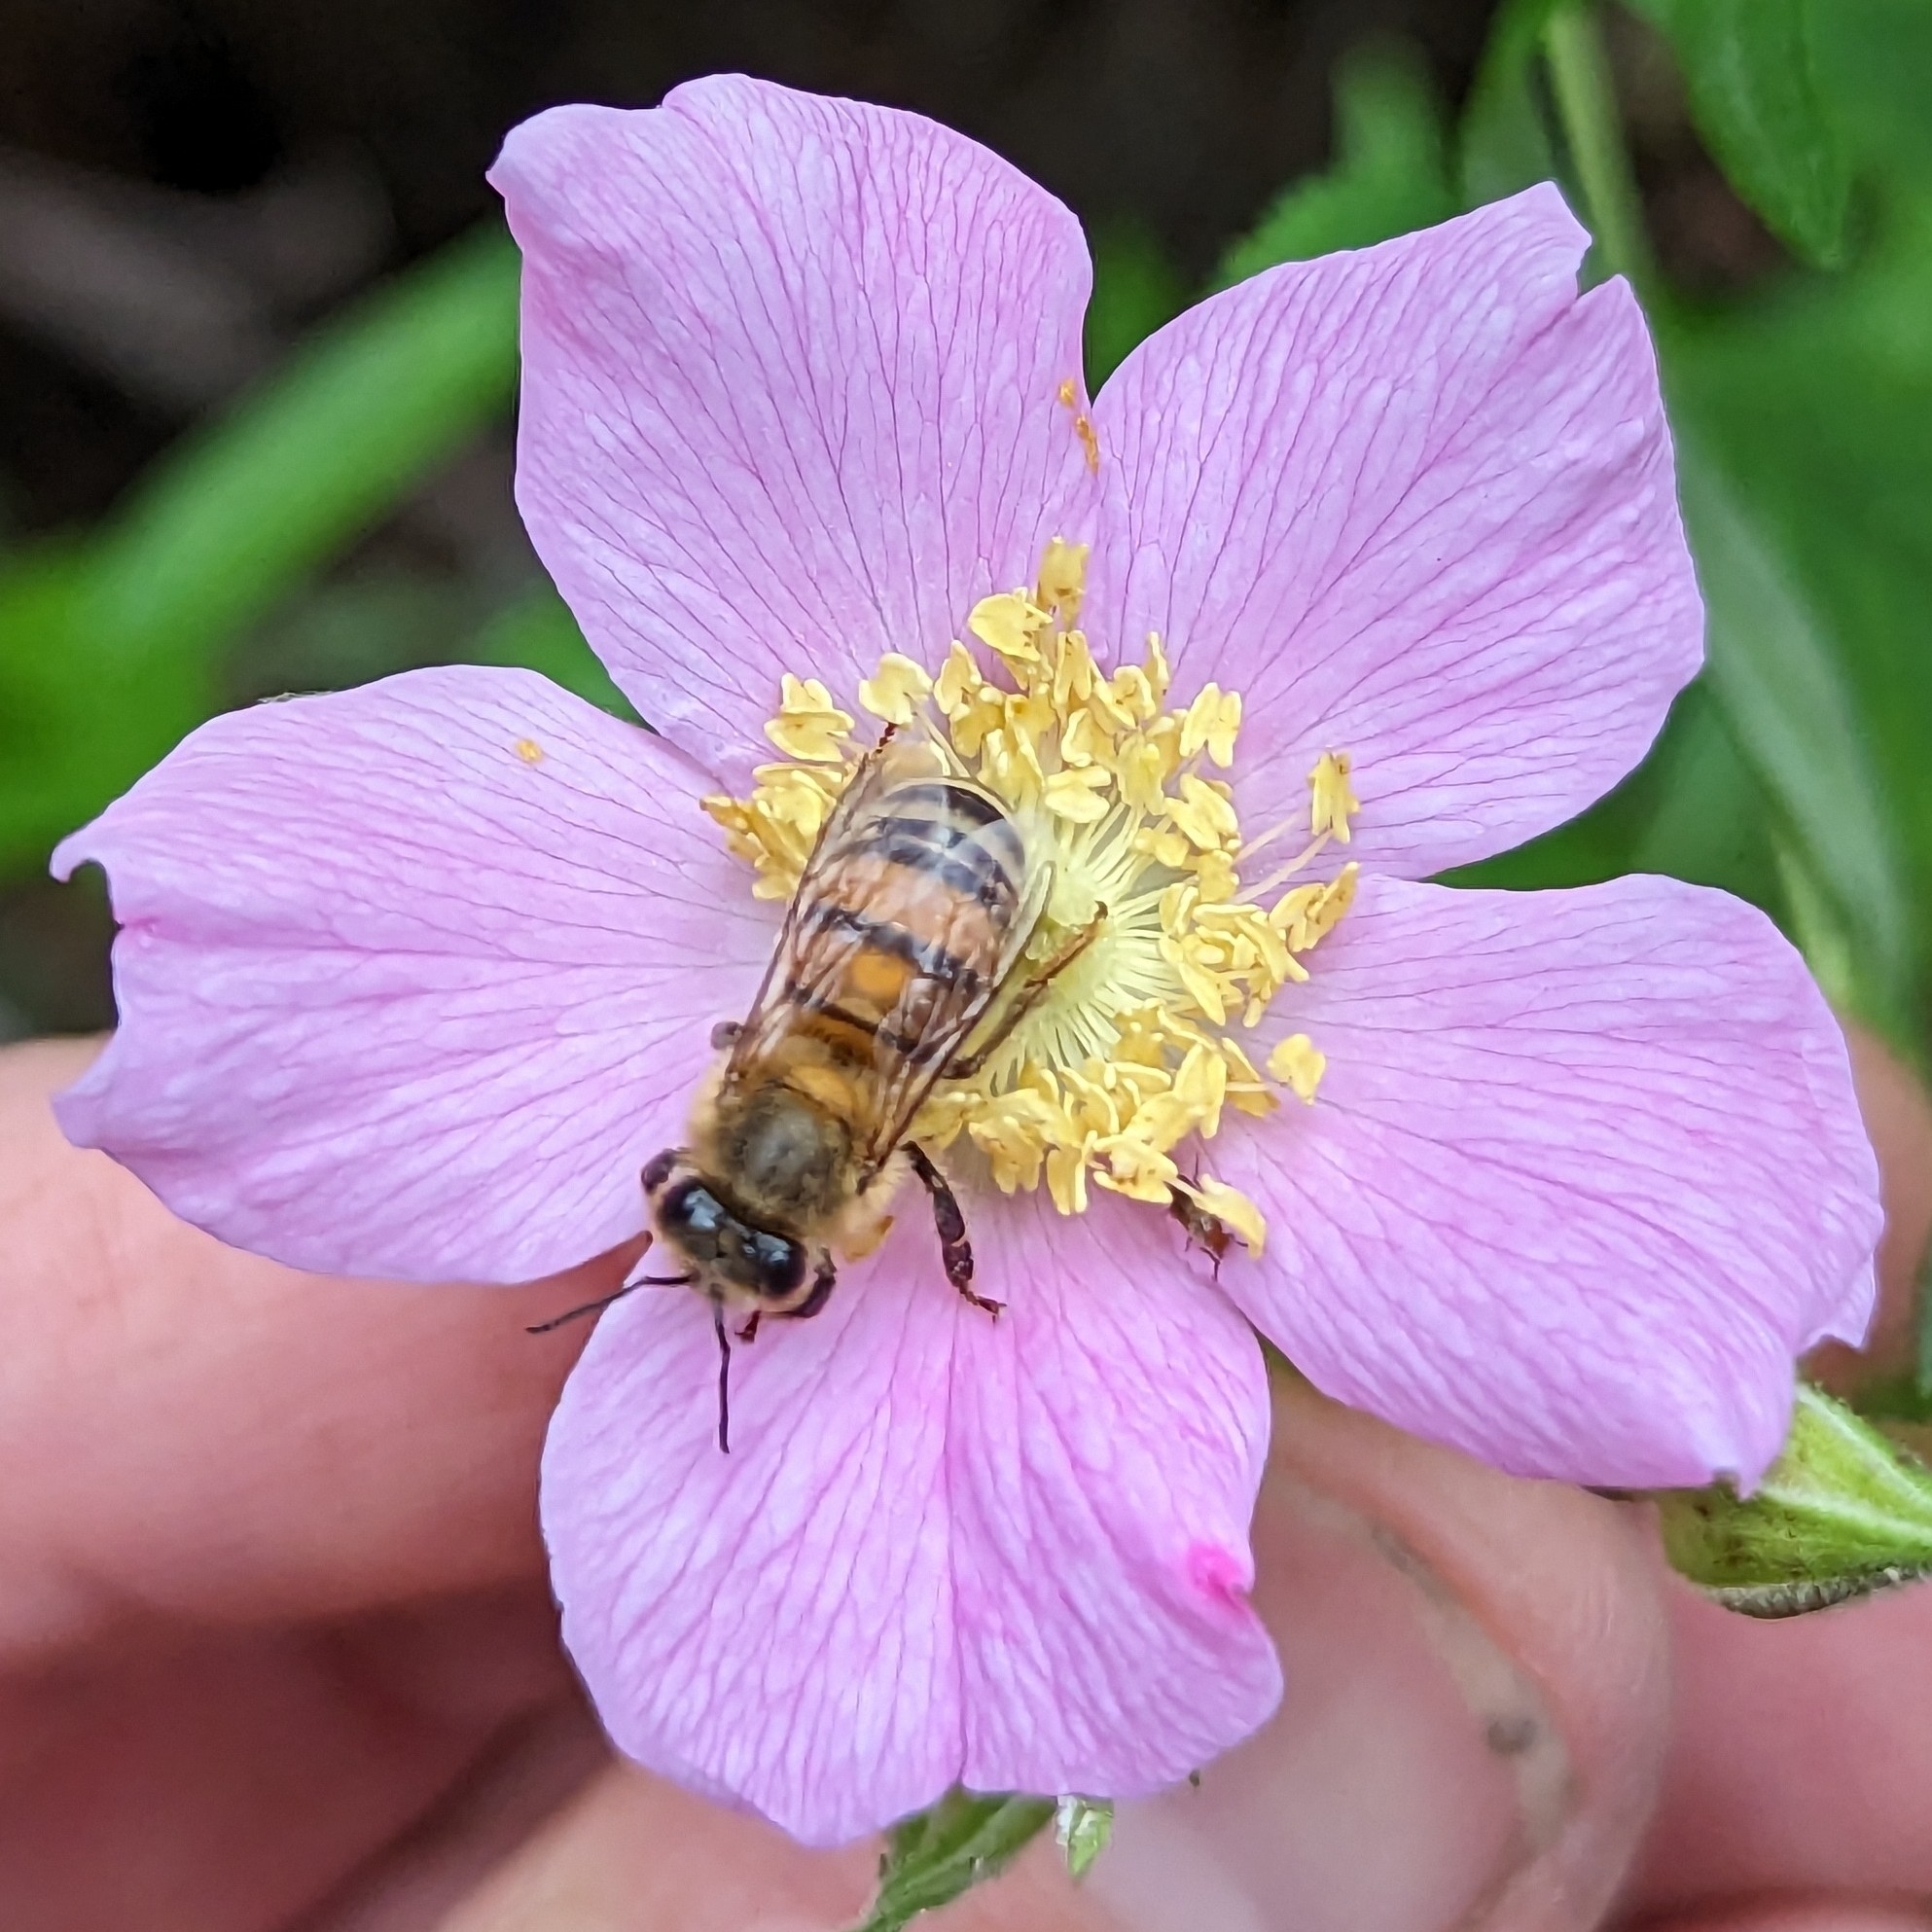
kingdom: Plantae
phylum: Tracheophyta
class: Magnoliopsida
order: Rosales
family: Rosaceae
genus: Rosa
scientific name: Rosa californica
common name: California rose
